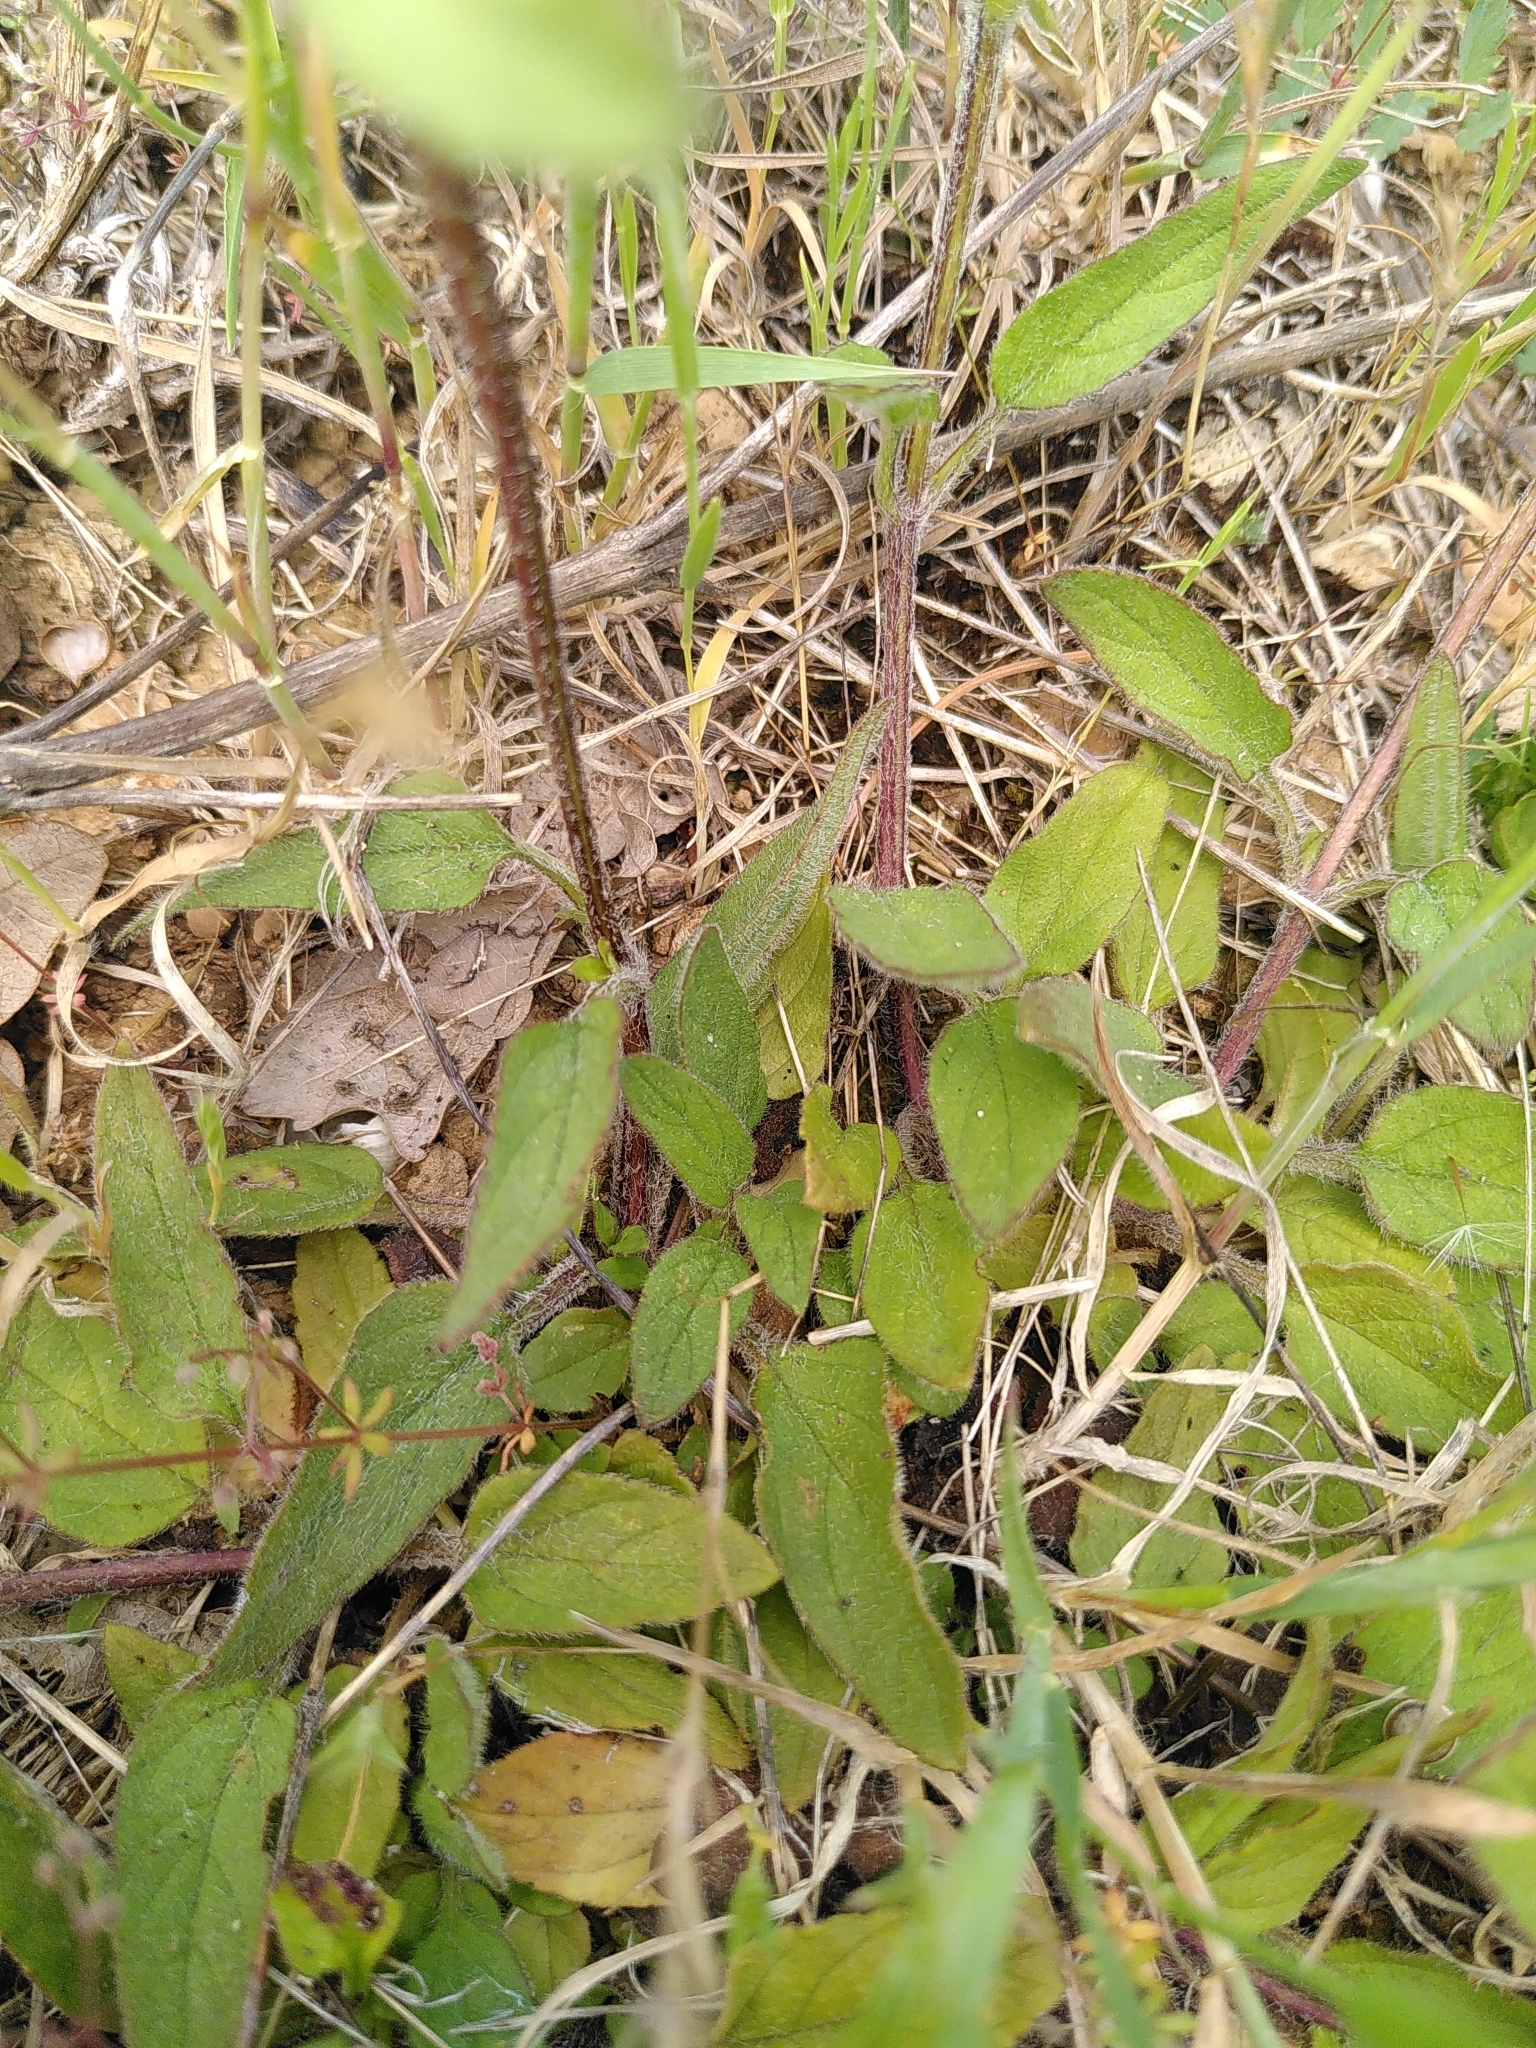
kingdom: Plantae
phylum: Tracheophyta
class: Magnoliopsida
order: Lamiales
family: Lamiaceae
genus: Prunella
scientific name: Prunella laciniata
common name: Cut-leaved selfheal
